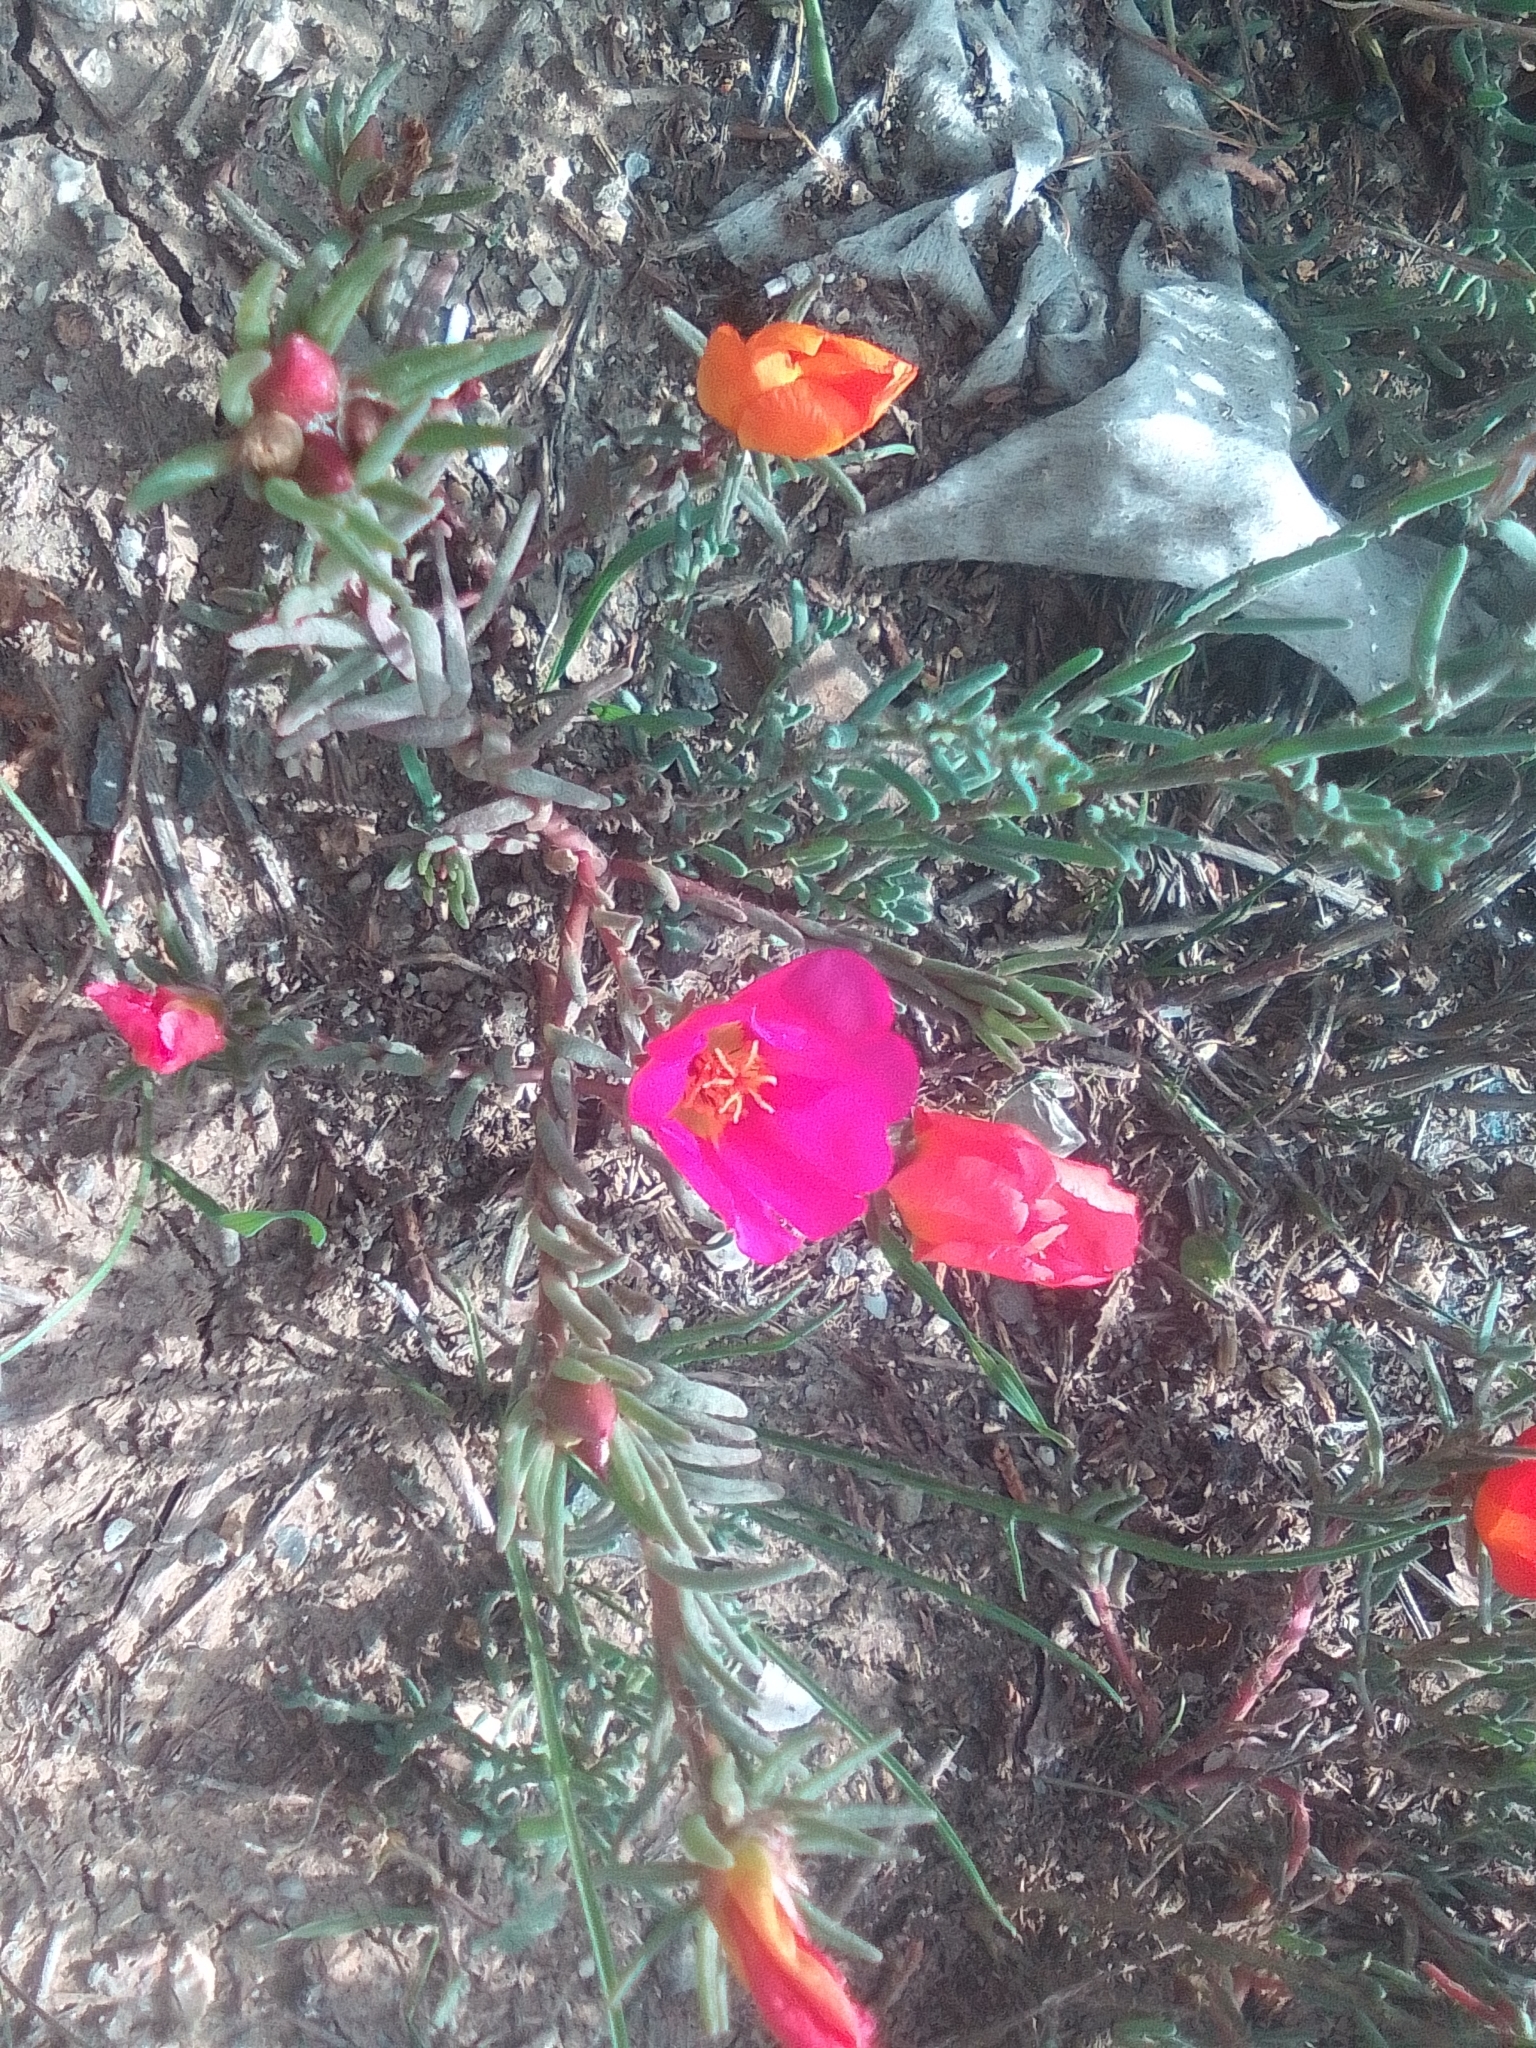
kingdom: Plantae
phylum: Tracheophyta
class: Magnoliopsida
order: Caryophyllales
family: Portulacaceae
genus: Portulaca
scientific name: Portulaca grandiflora
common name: Moss-rose
